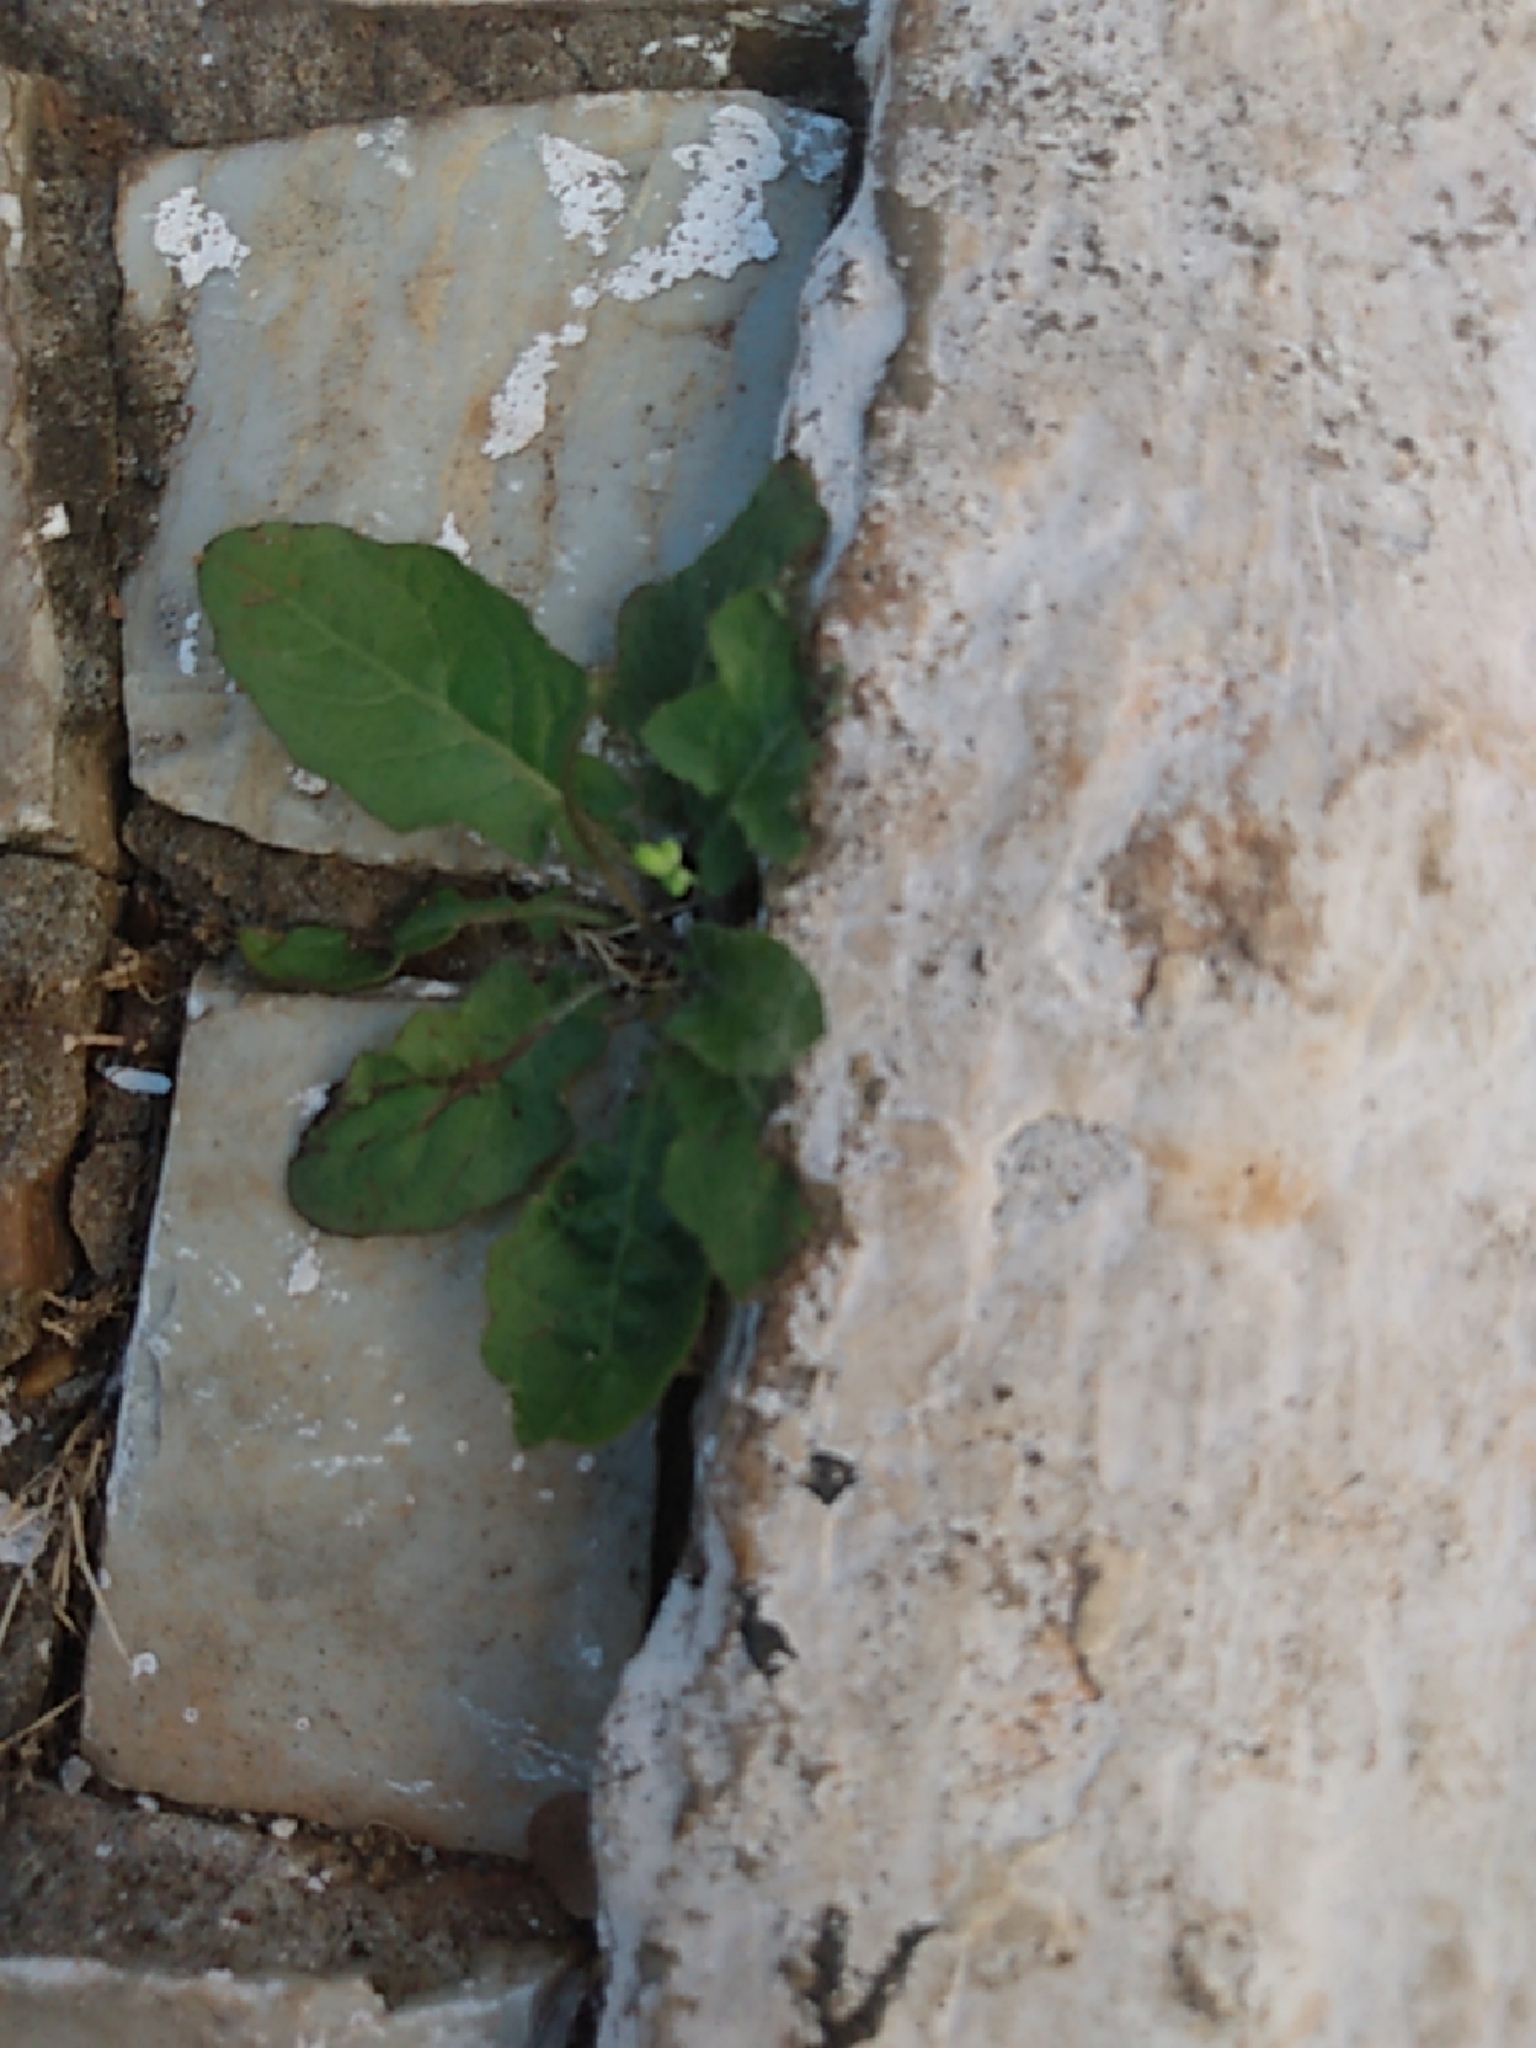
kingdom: Plantae
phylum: Tracheophyta
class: Magnoliopsida
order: Asterales
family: Asteraceae
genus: Youngia
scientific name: Youngia japonica
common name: Oriental false hawksbeard
